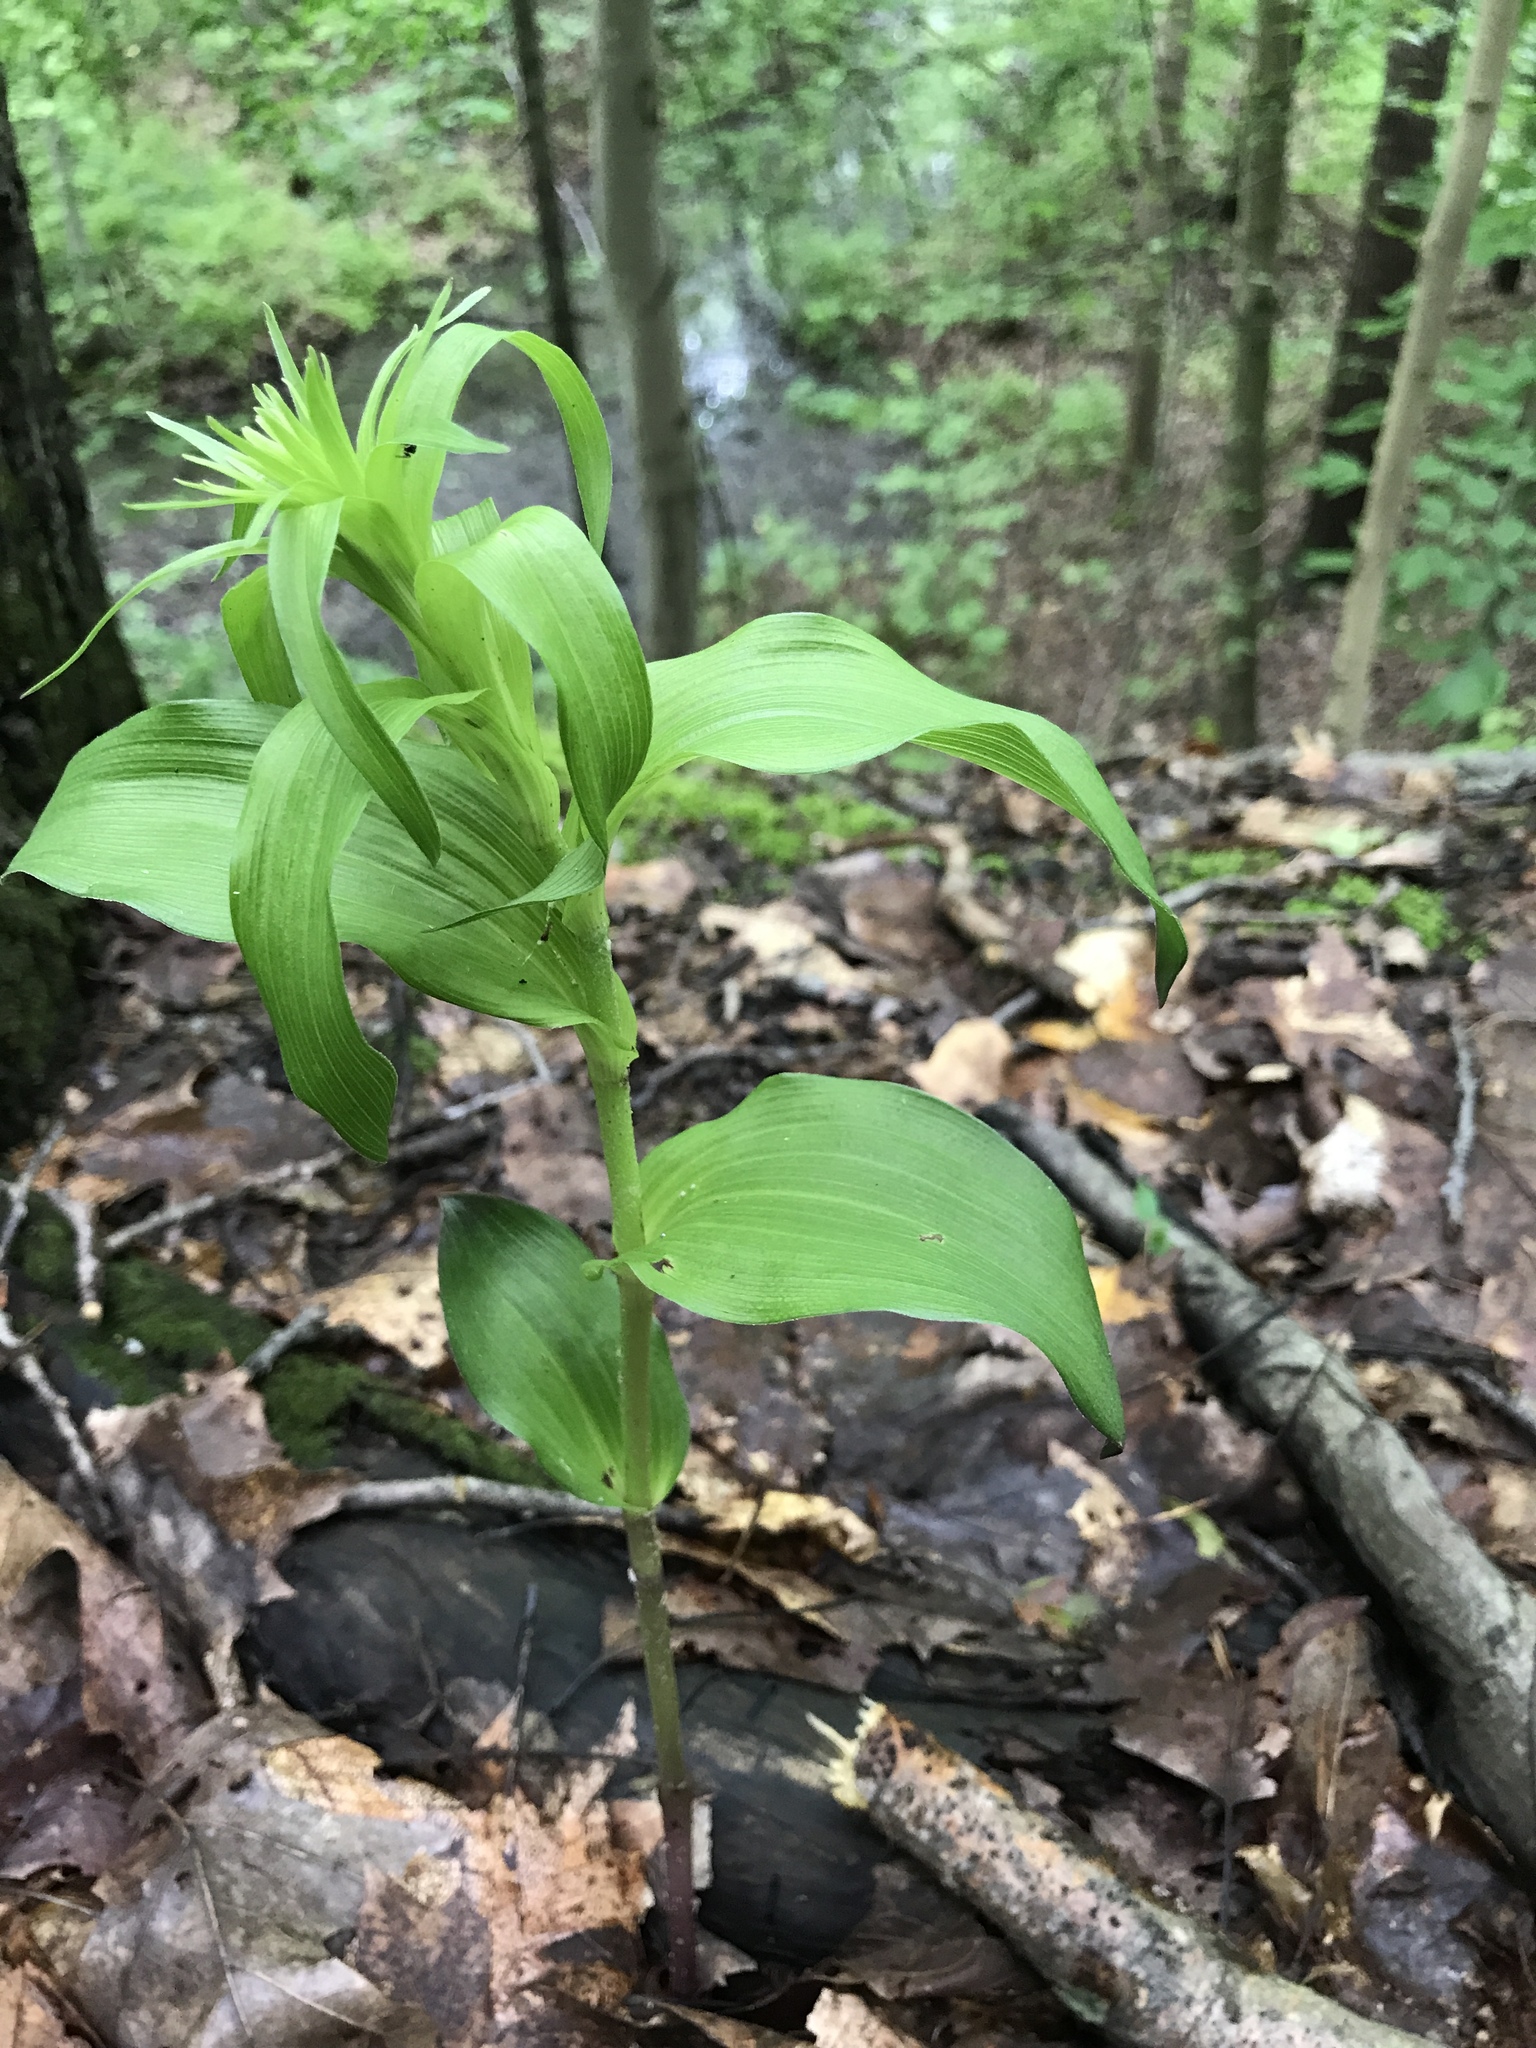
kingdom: Plantae
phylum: Tracheophyta
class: Liliopsida
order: Asparagales
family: Orchidaceae
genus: Epipactis
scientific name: Epipactis helleborine
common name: Broad-leaved helleborine
